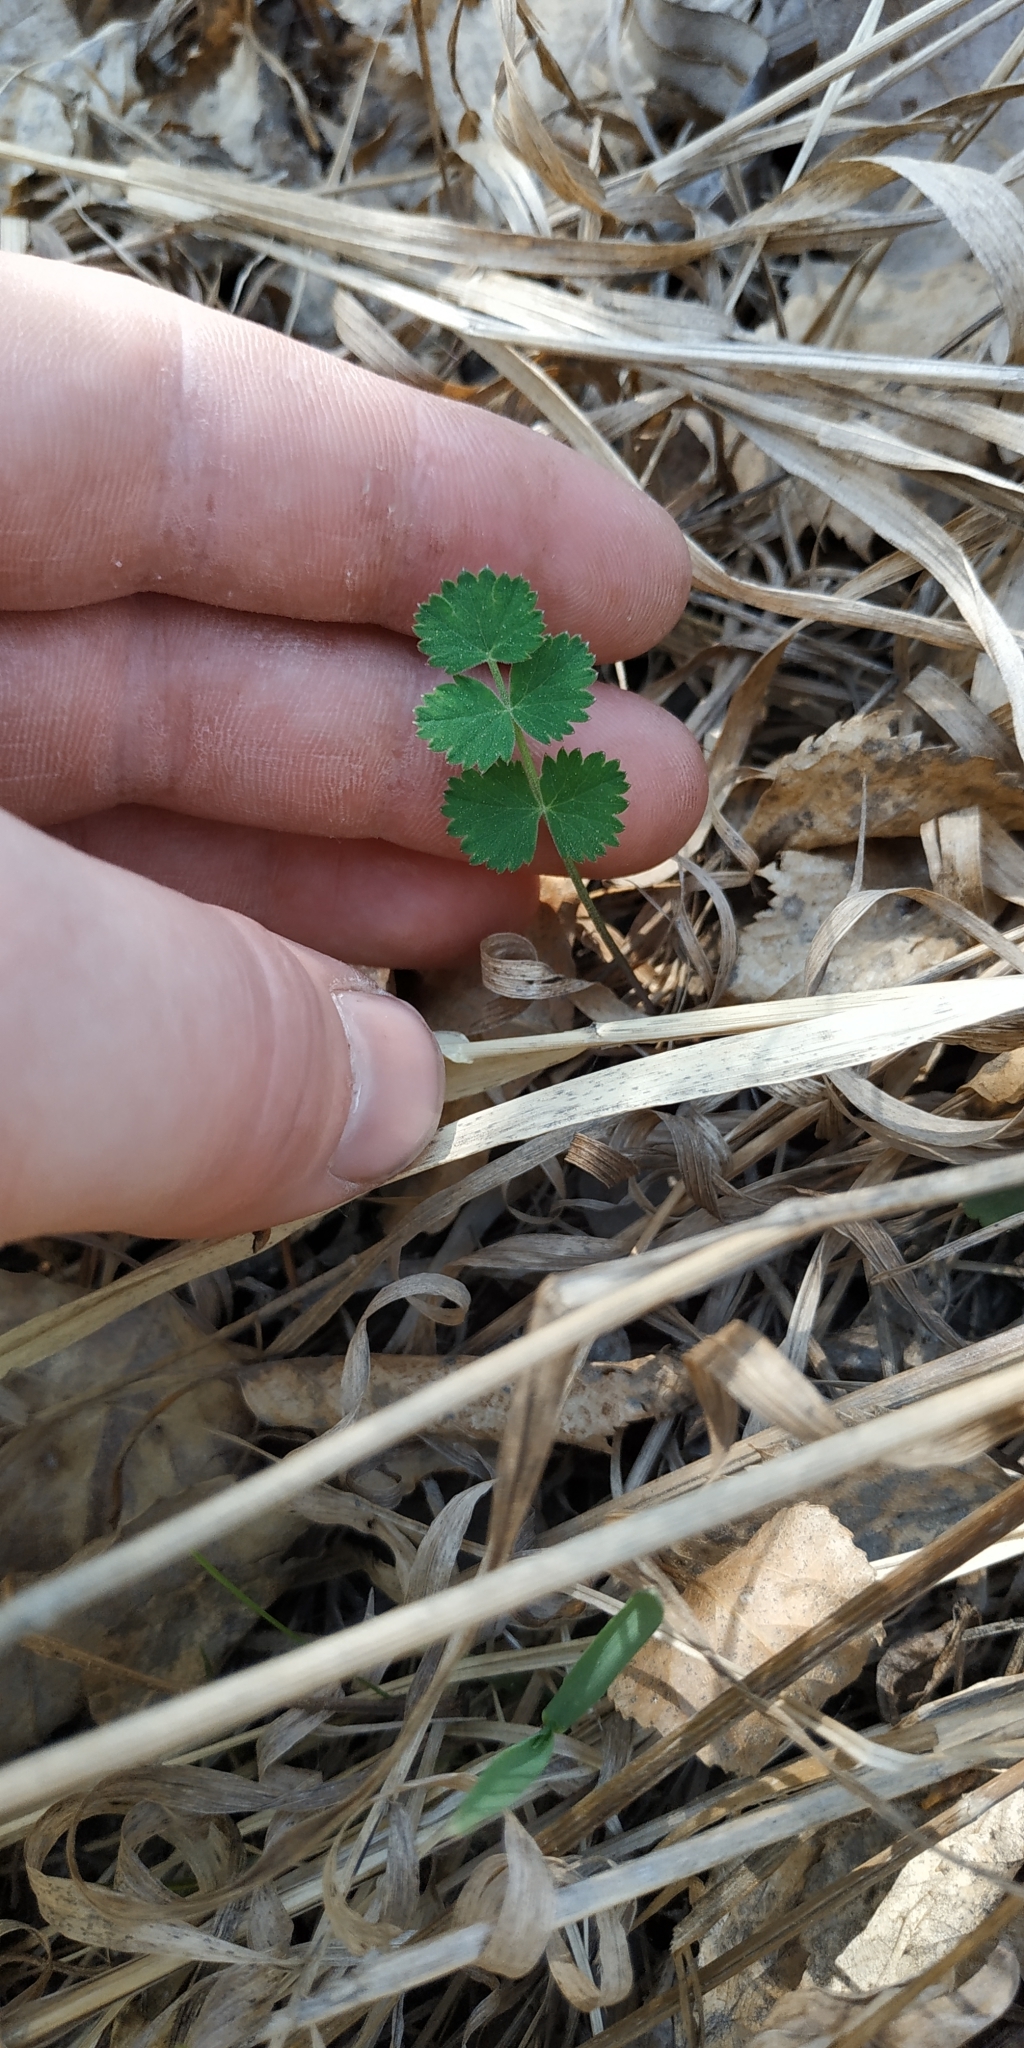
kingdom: Plantae
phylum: Tracheophyta
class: Magnoliopsida
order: Apiales
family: Apiaceae
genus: Pimpinella
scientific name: Pimpinella saxifraga
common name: Burnet-saxifrage
